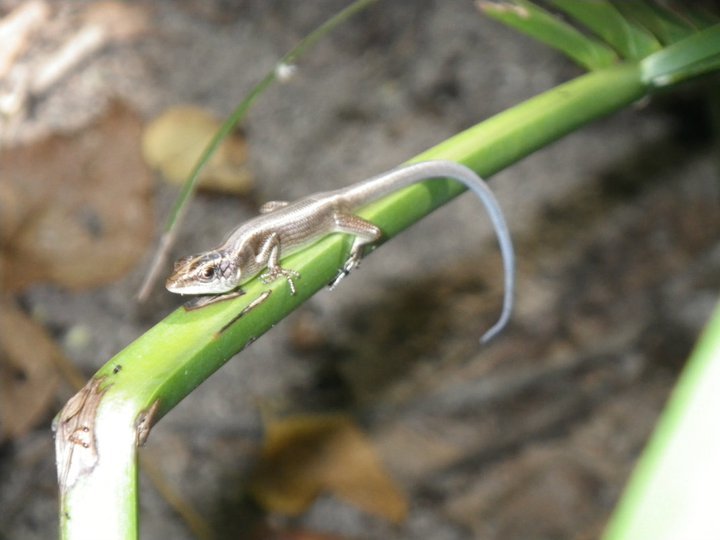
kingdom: Animalia
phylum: Chordata
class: Squamata
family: Scincidae
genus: Emoia
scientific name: Emoia caeruleocauda
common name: Pacific bluetail skink
